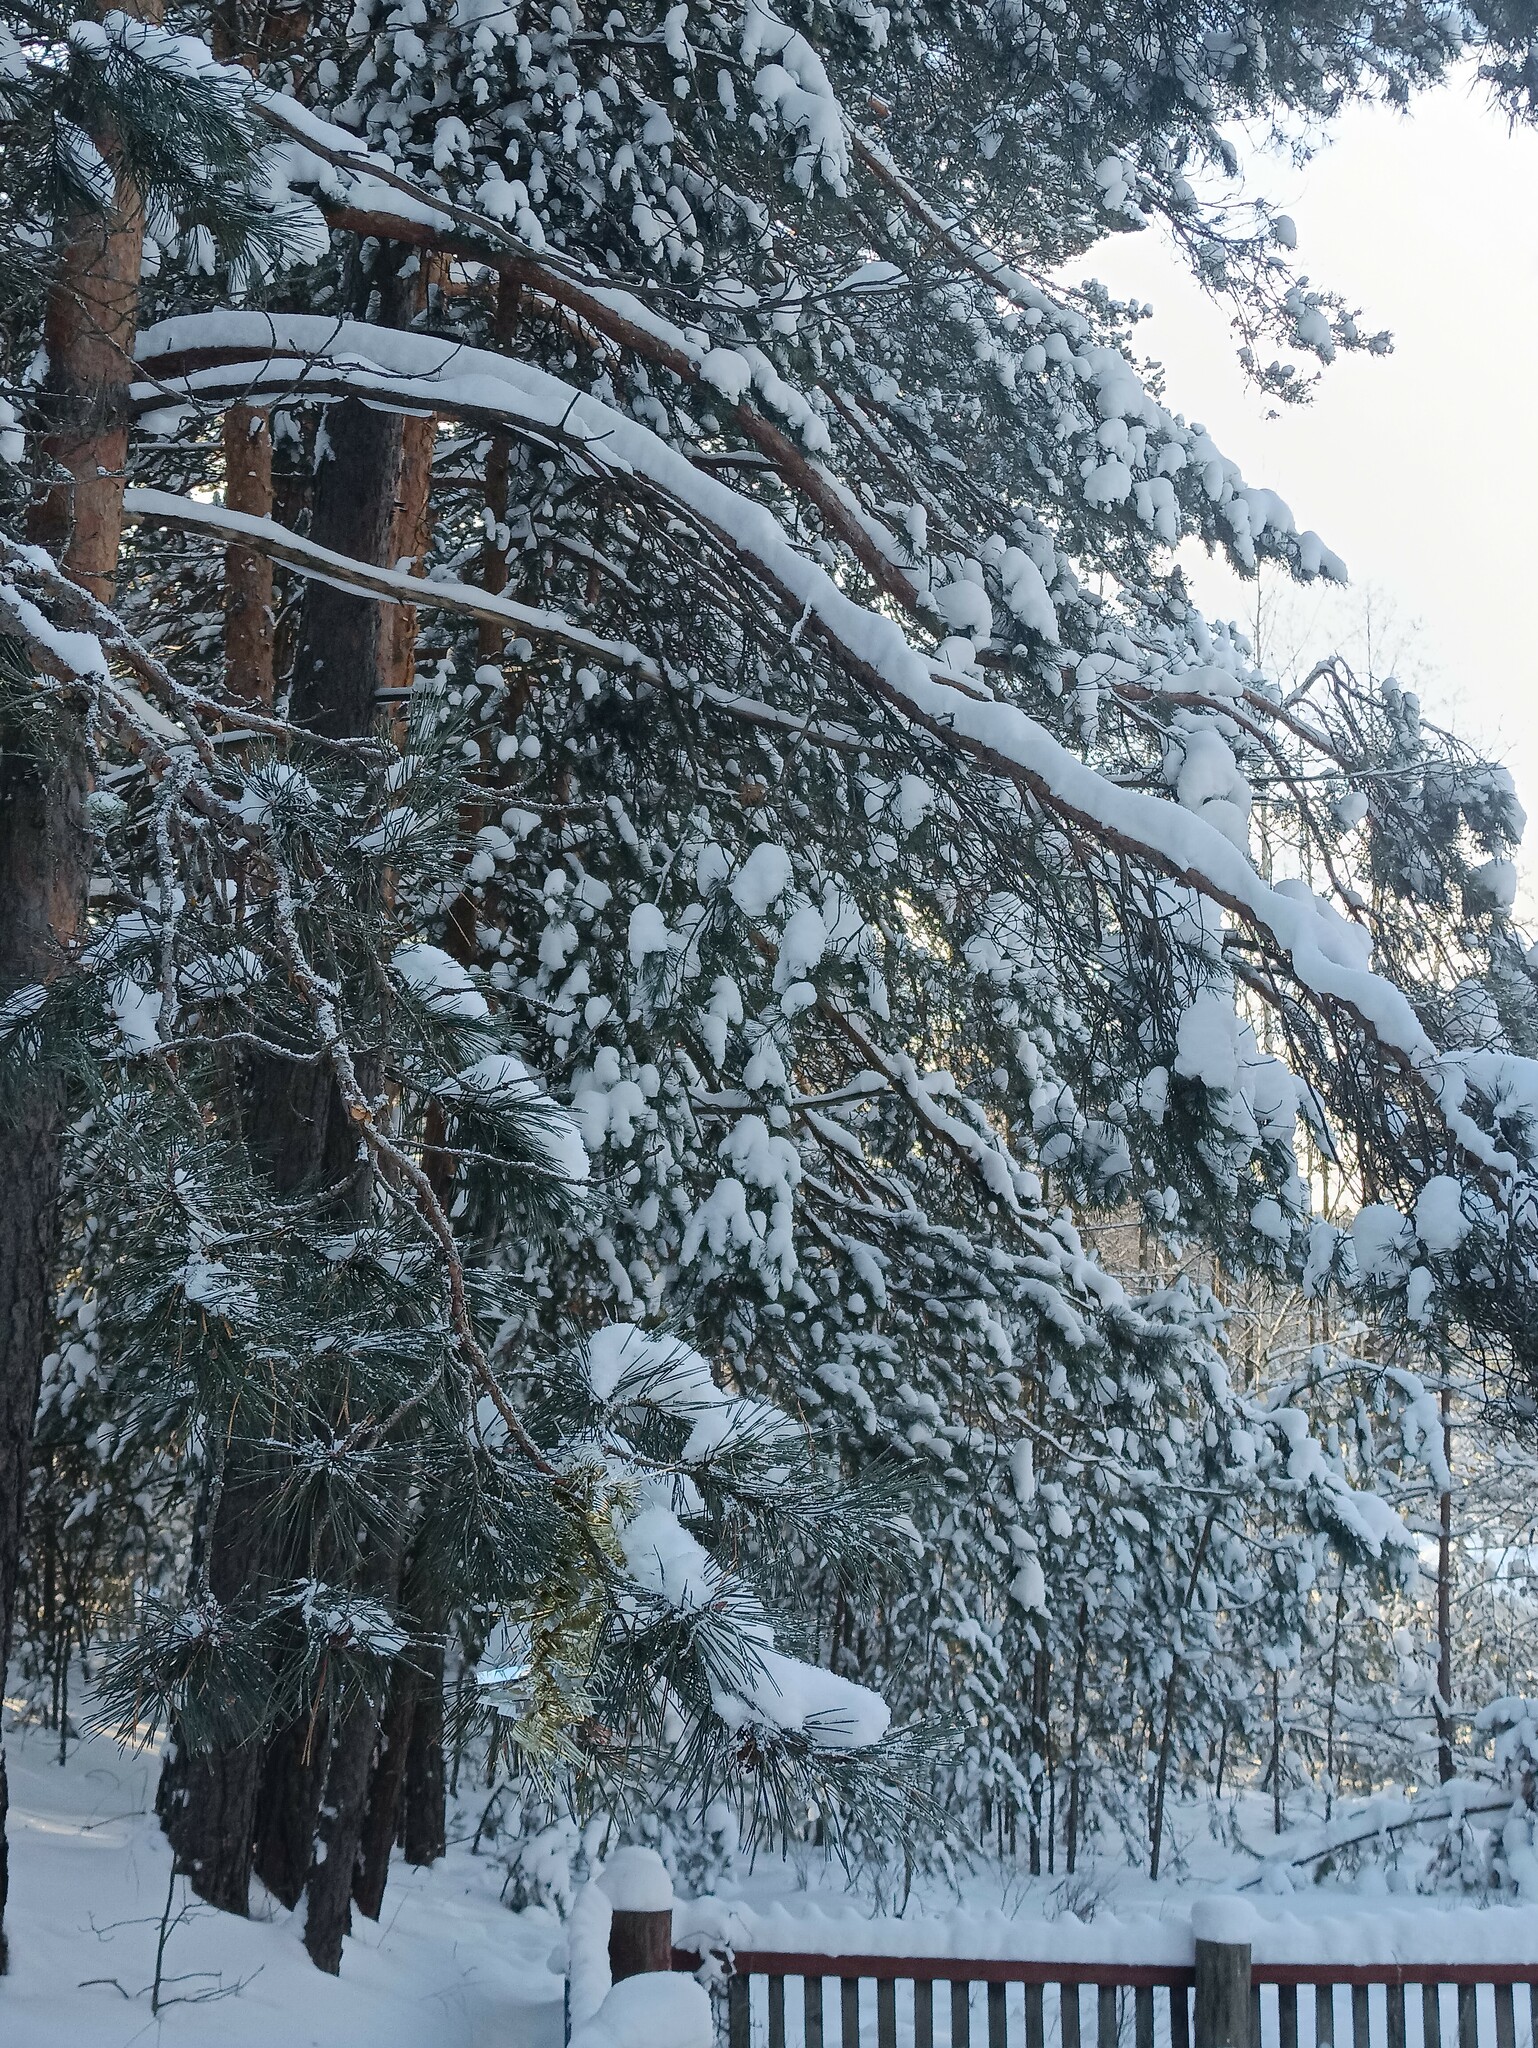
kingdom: Plantae
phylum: Tracheophyta
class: Pinopsida
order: Pinales
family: Pinaceae
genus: Pinus
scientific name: Pinus sylvestris
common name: Scots pine
